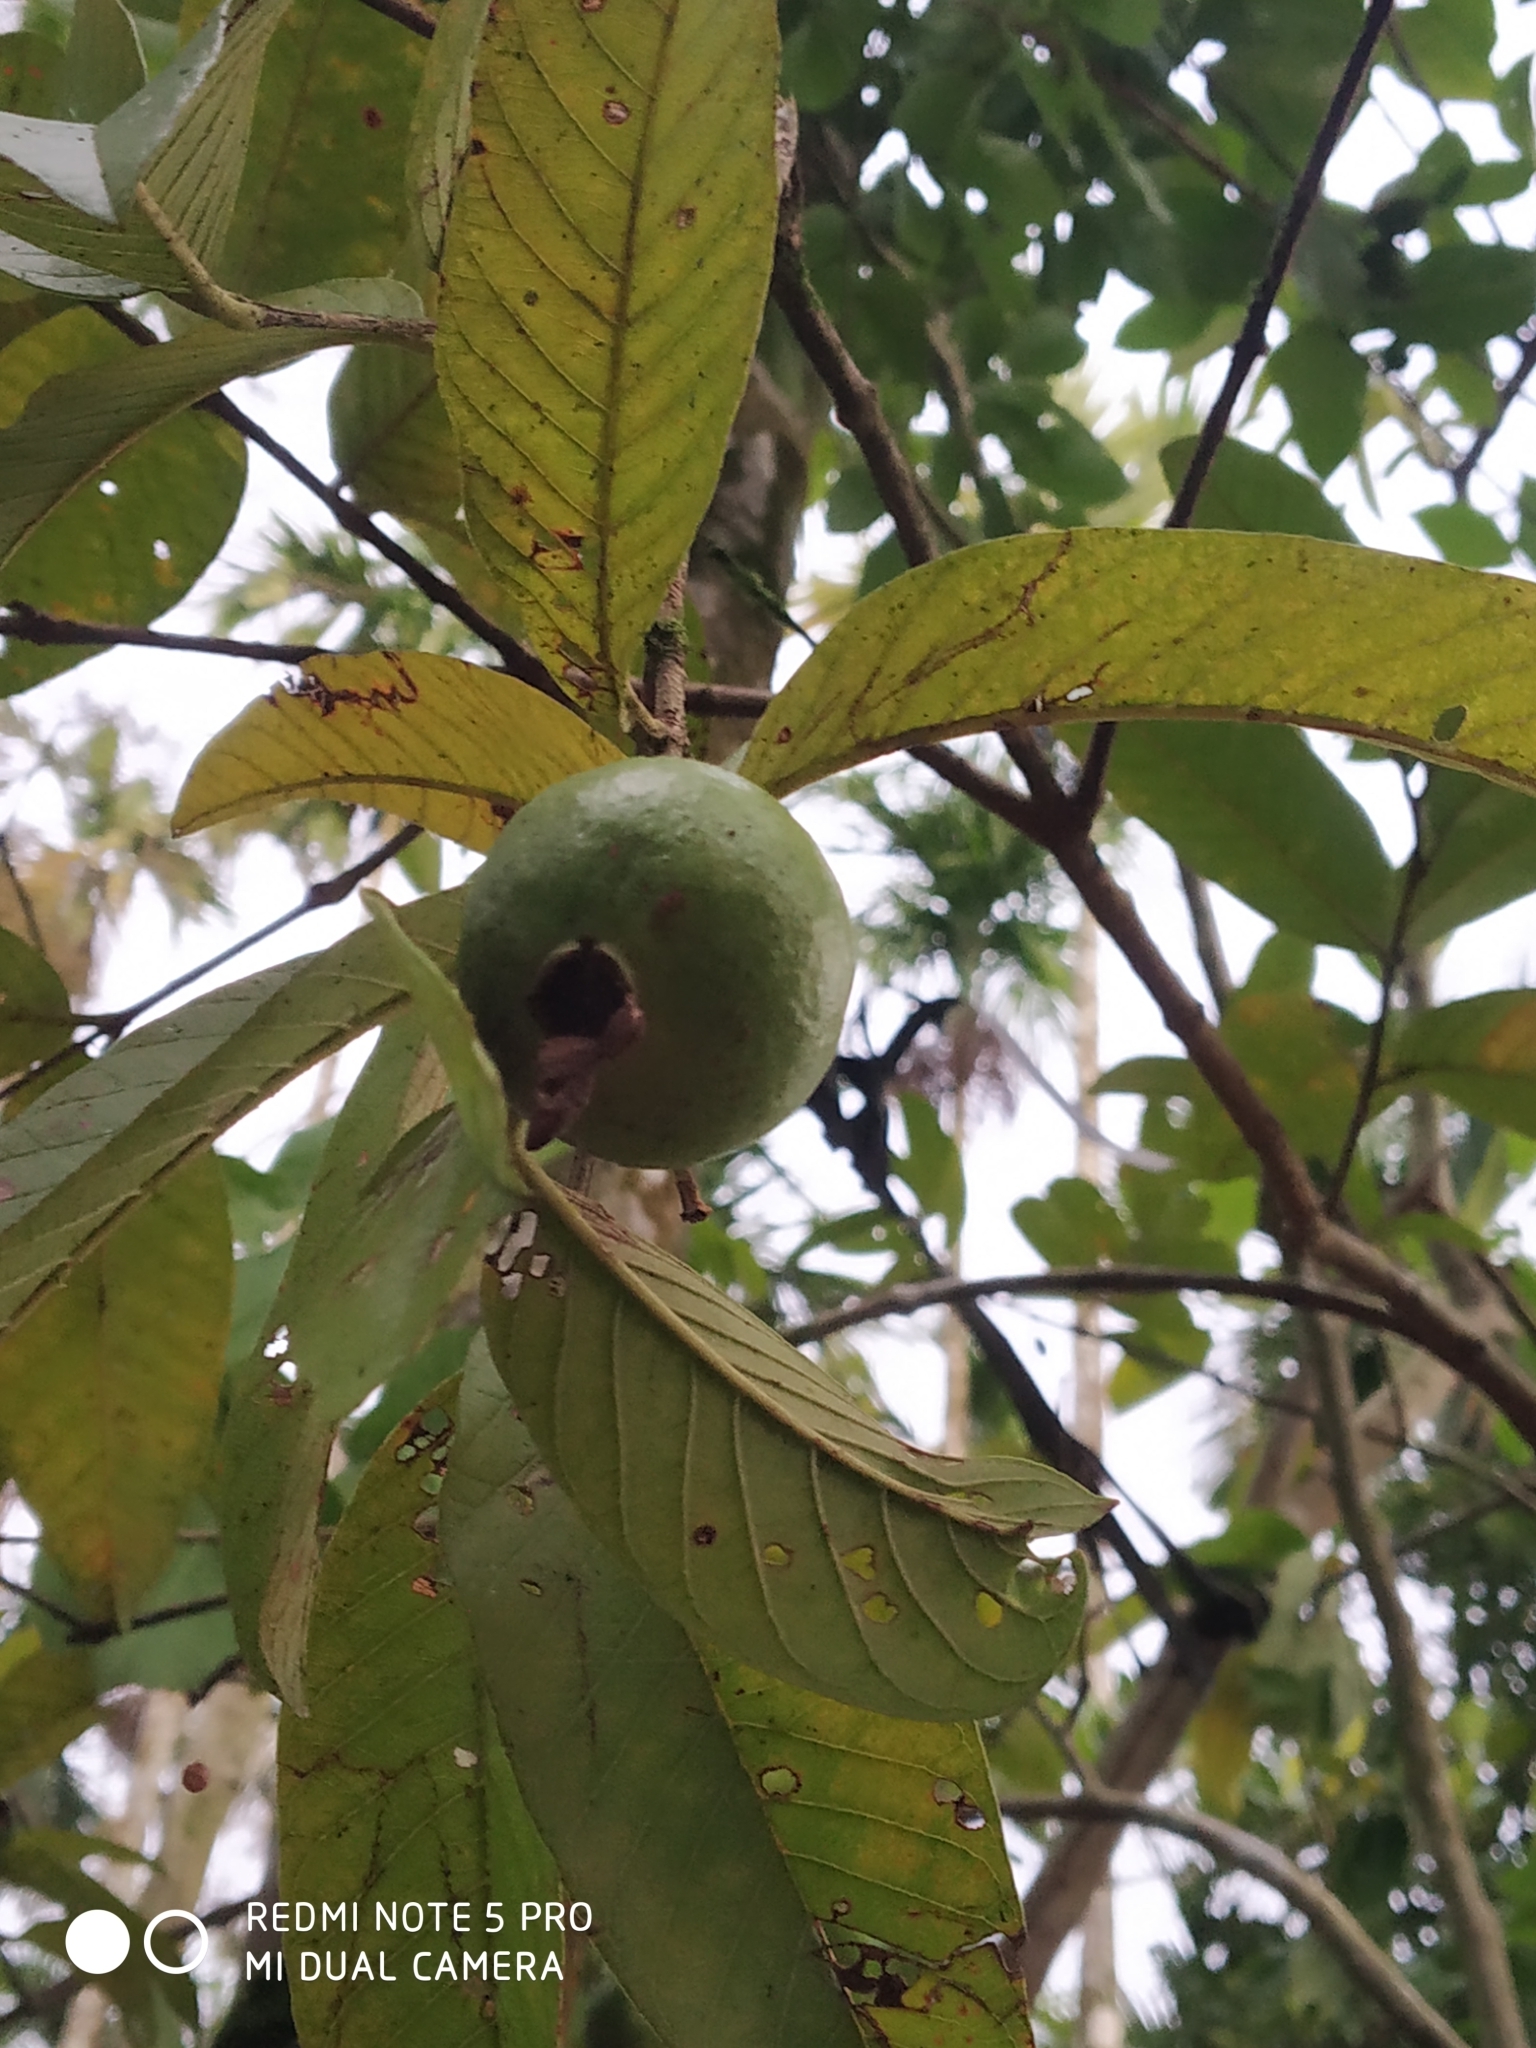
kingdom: Plantae
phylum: Tracheophyta
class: Magnoliopsida
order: Myrtales
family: Myrtaceae
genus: Psidium
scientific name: Psidium guajava
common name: Guava
